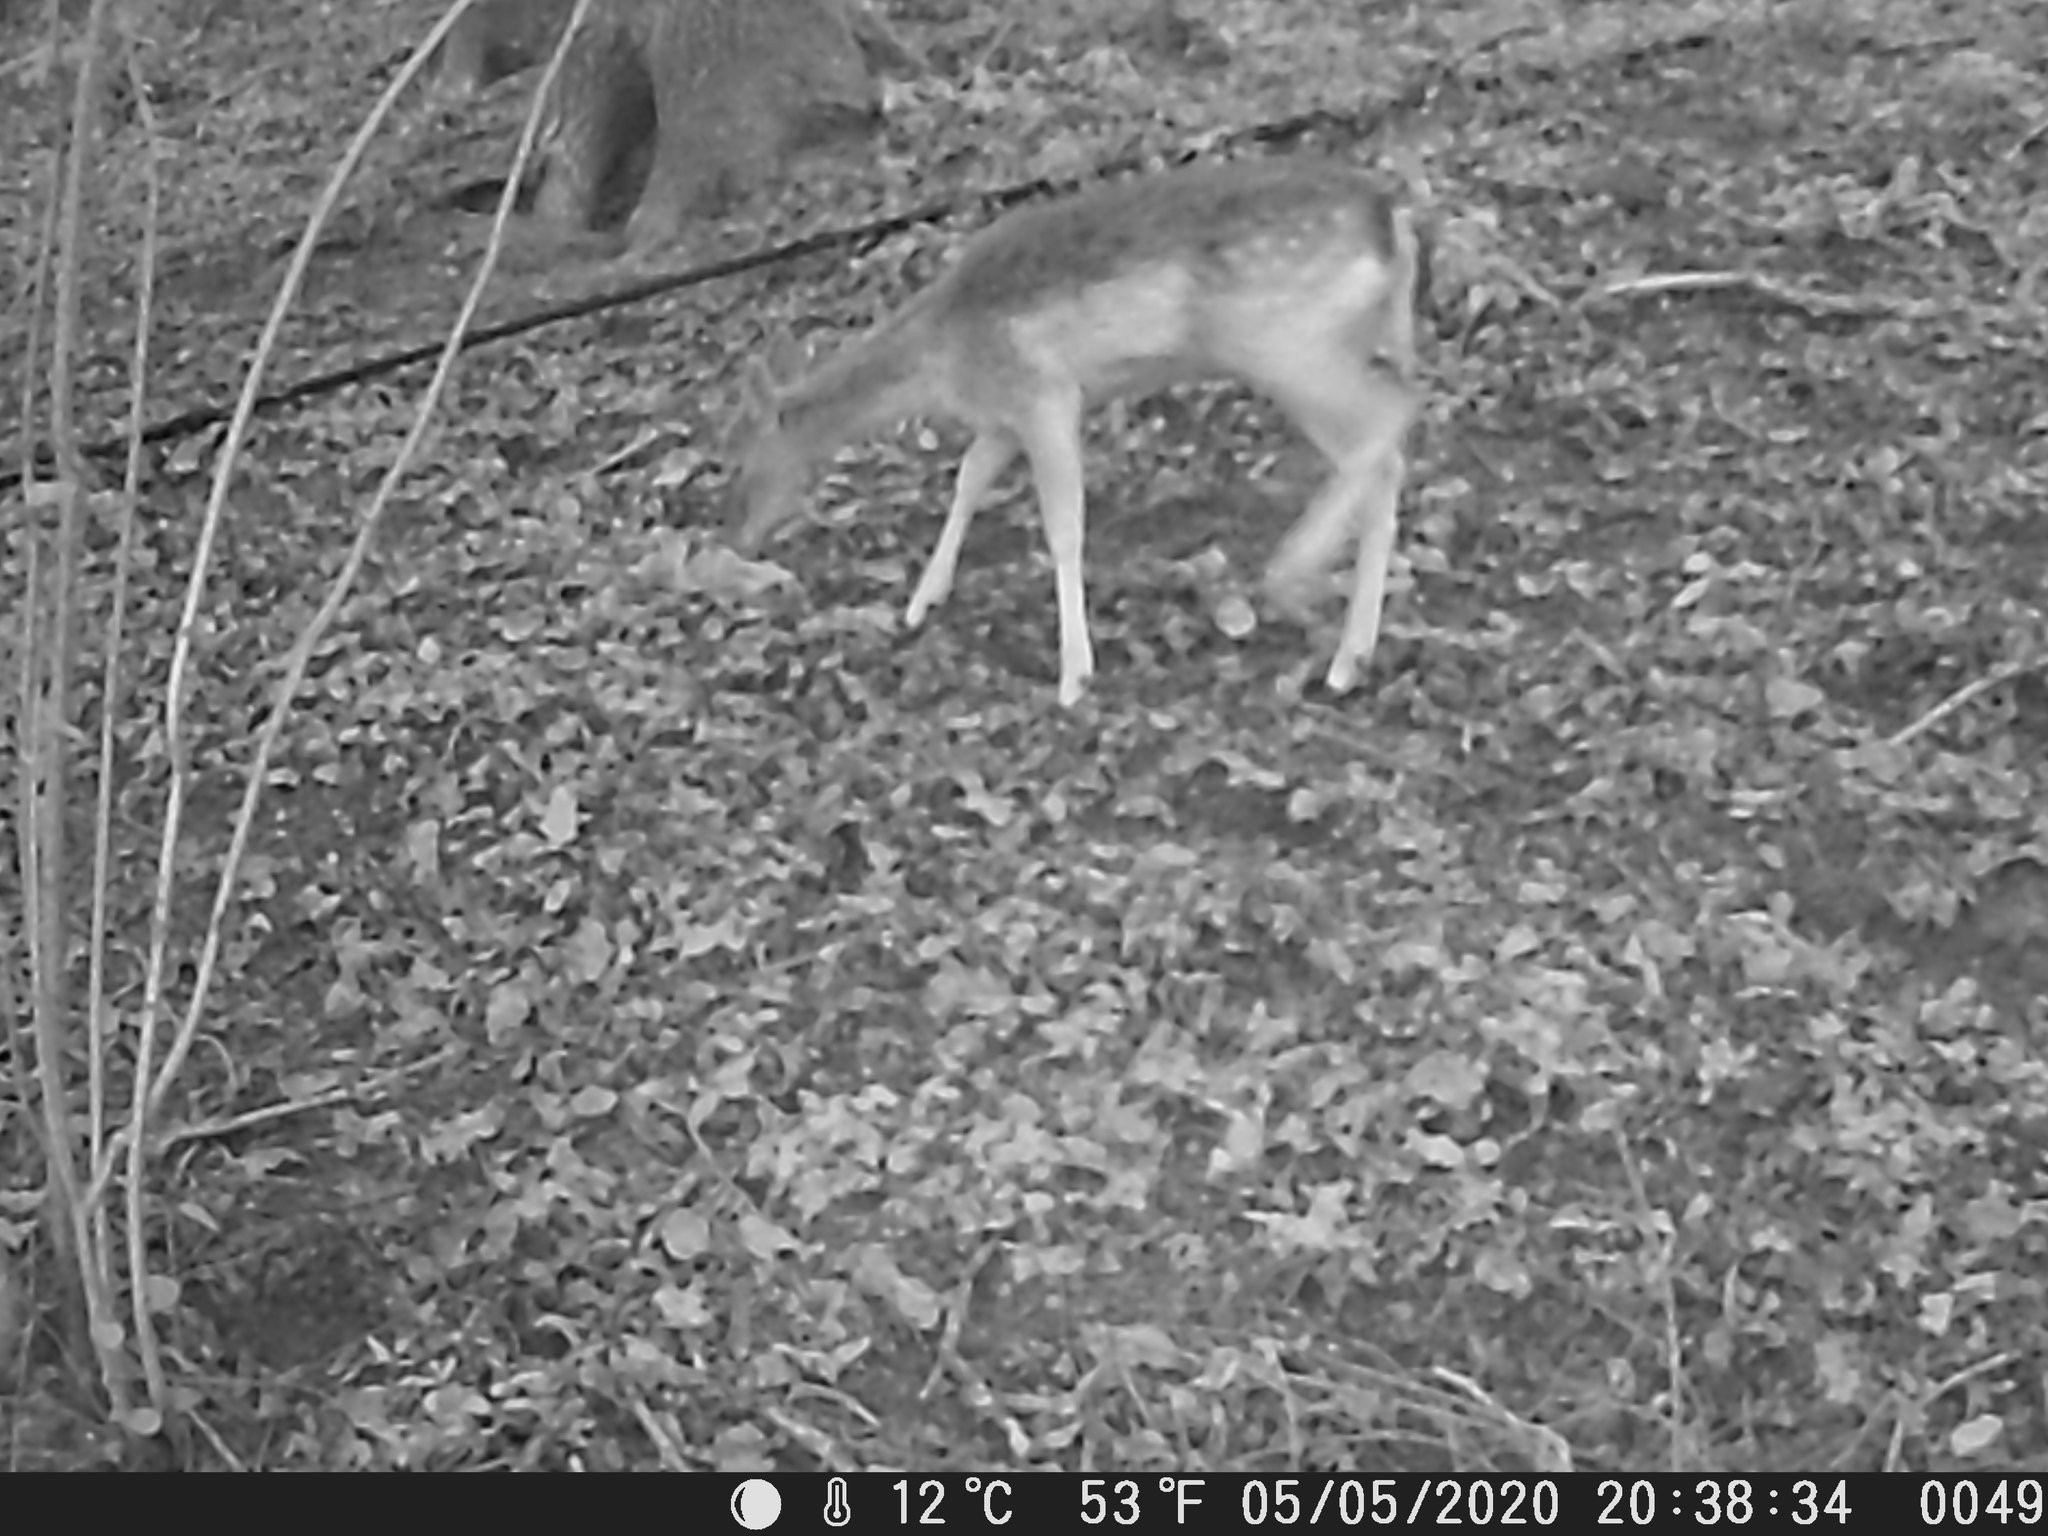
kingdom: Animalia
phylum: Chordata
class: Mammalia
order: Artiodactyla
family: Cervidae
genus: Dama
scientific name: Dama dama
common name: Fallow deer
